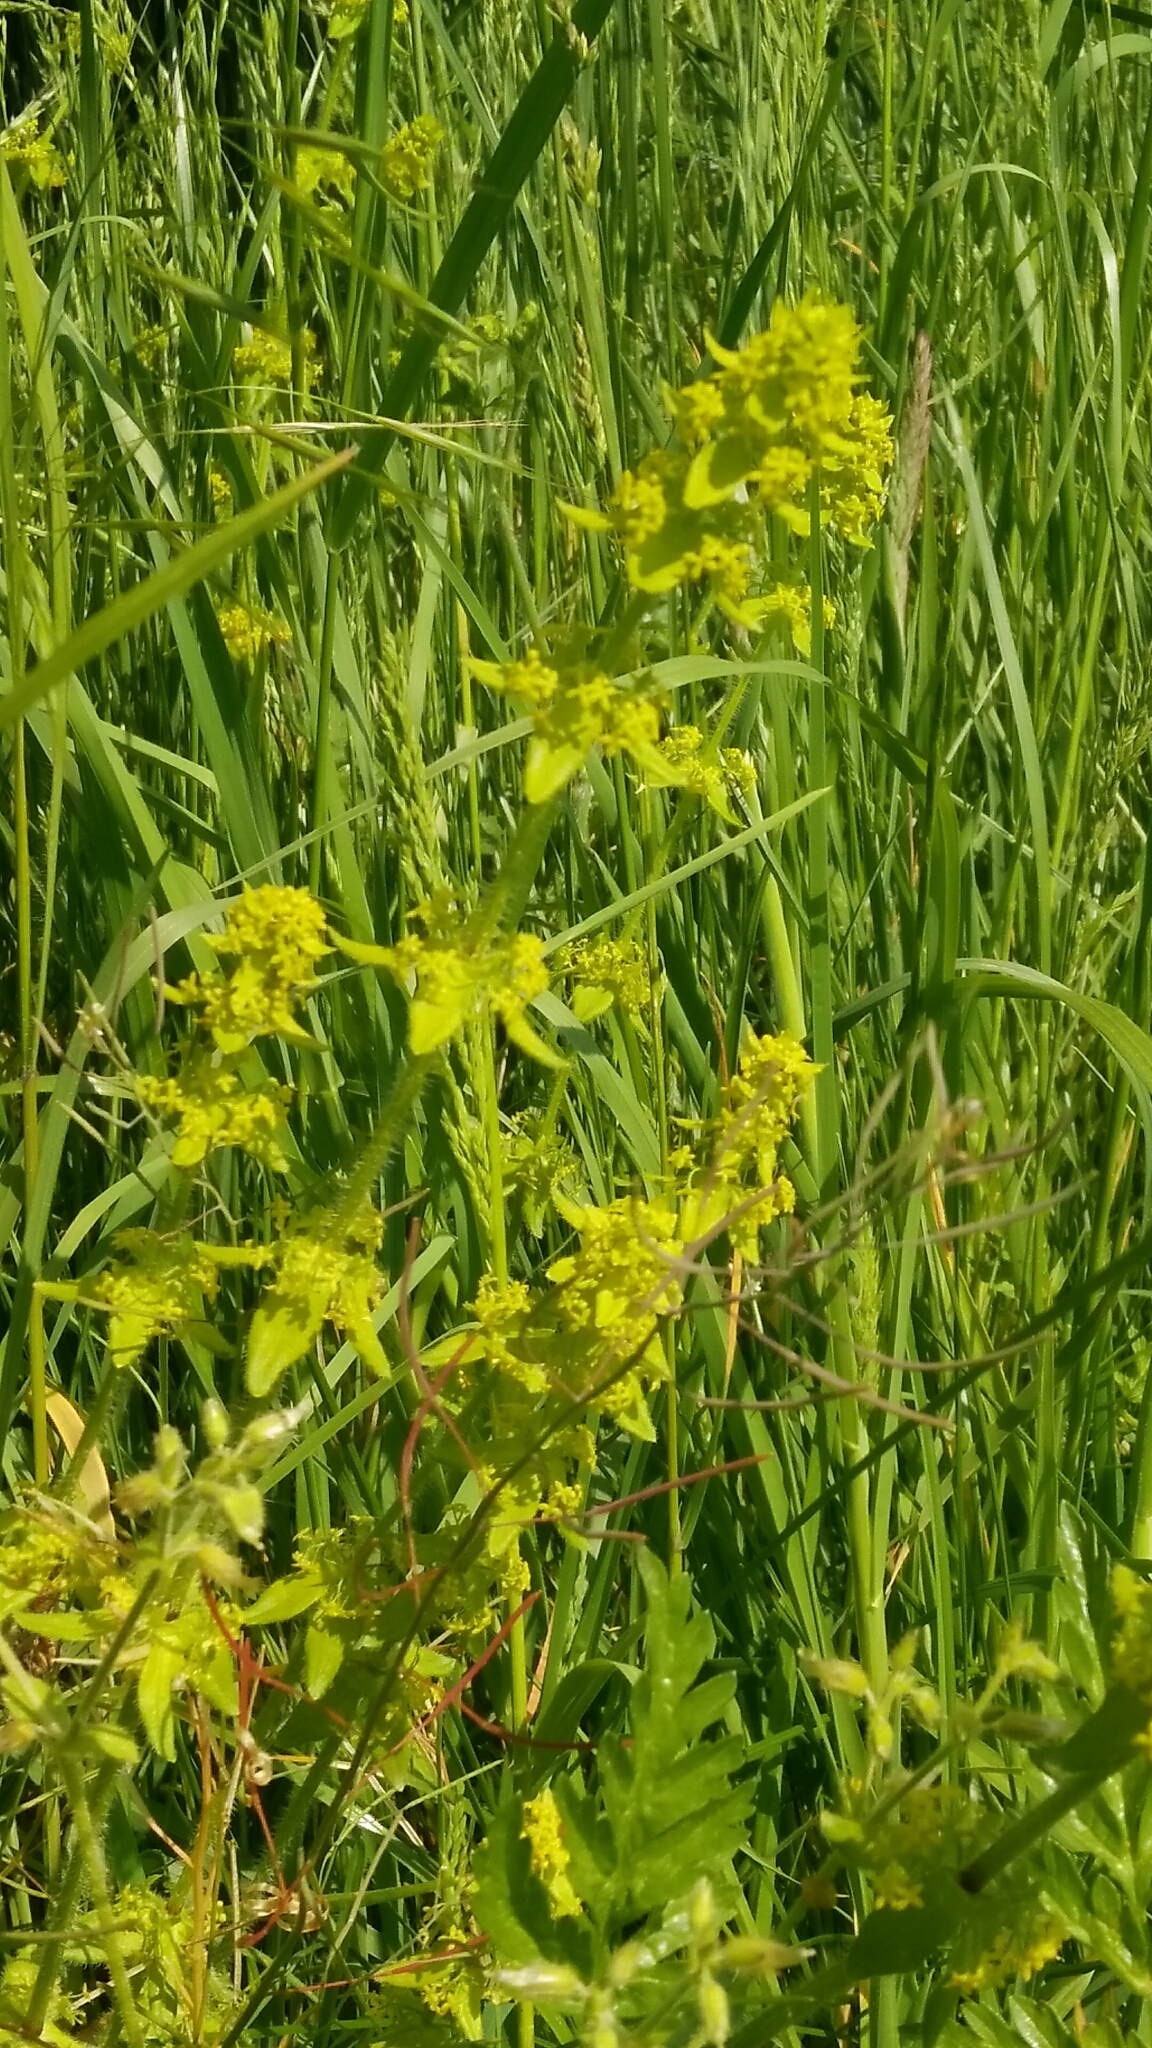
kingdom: Plantae
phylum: Tracheophyta
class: Magnoliopsida
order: Gentianales
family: Rubiaceae
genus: Cruciata
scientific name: Cruciata laevipes
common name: Crosswort
